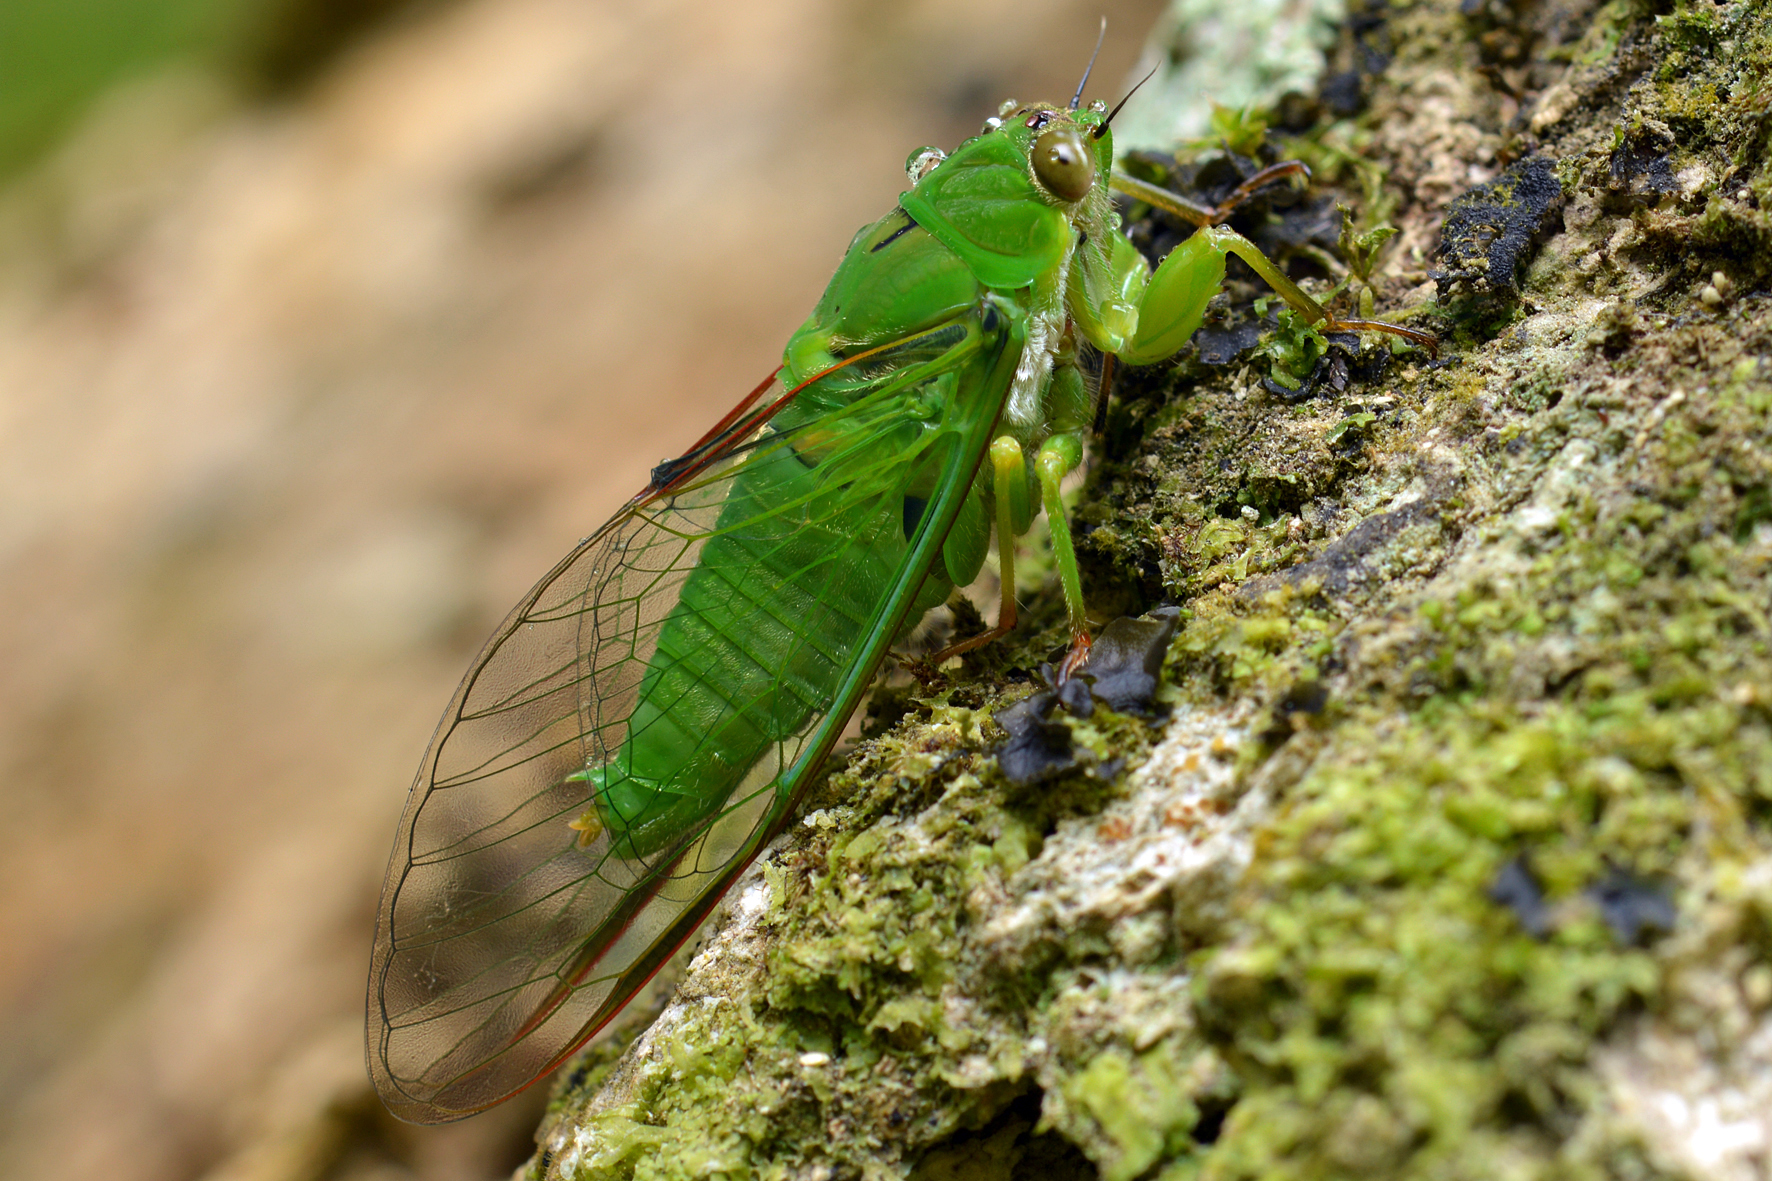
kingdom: Animalia
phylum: Arthropoda
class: Insecta
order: Hemiptera
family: Cicadidae
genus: Kikihia
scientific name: Kikihia ochrina
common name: April green cicada
